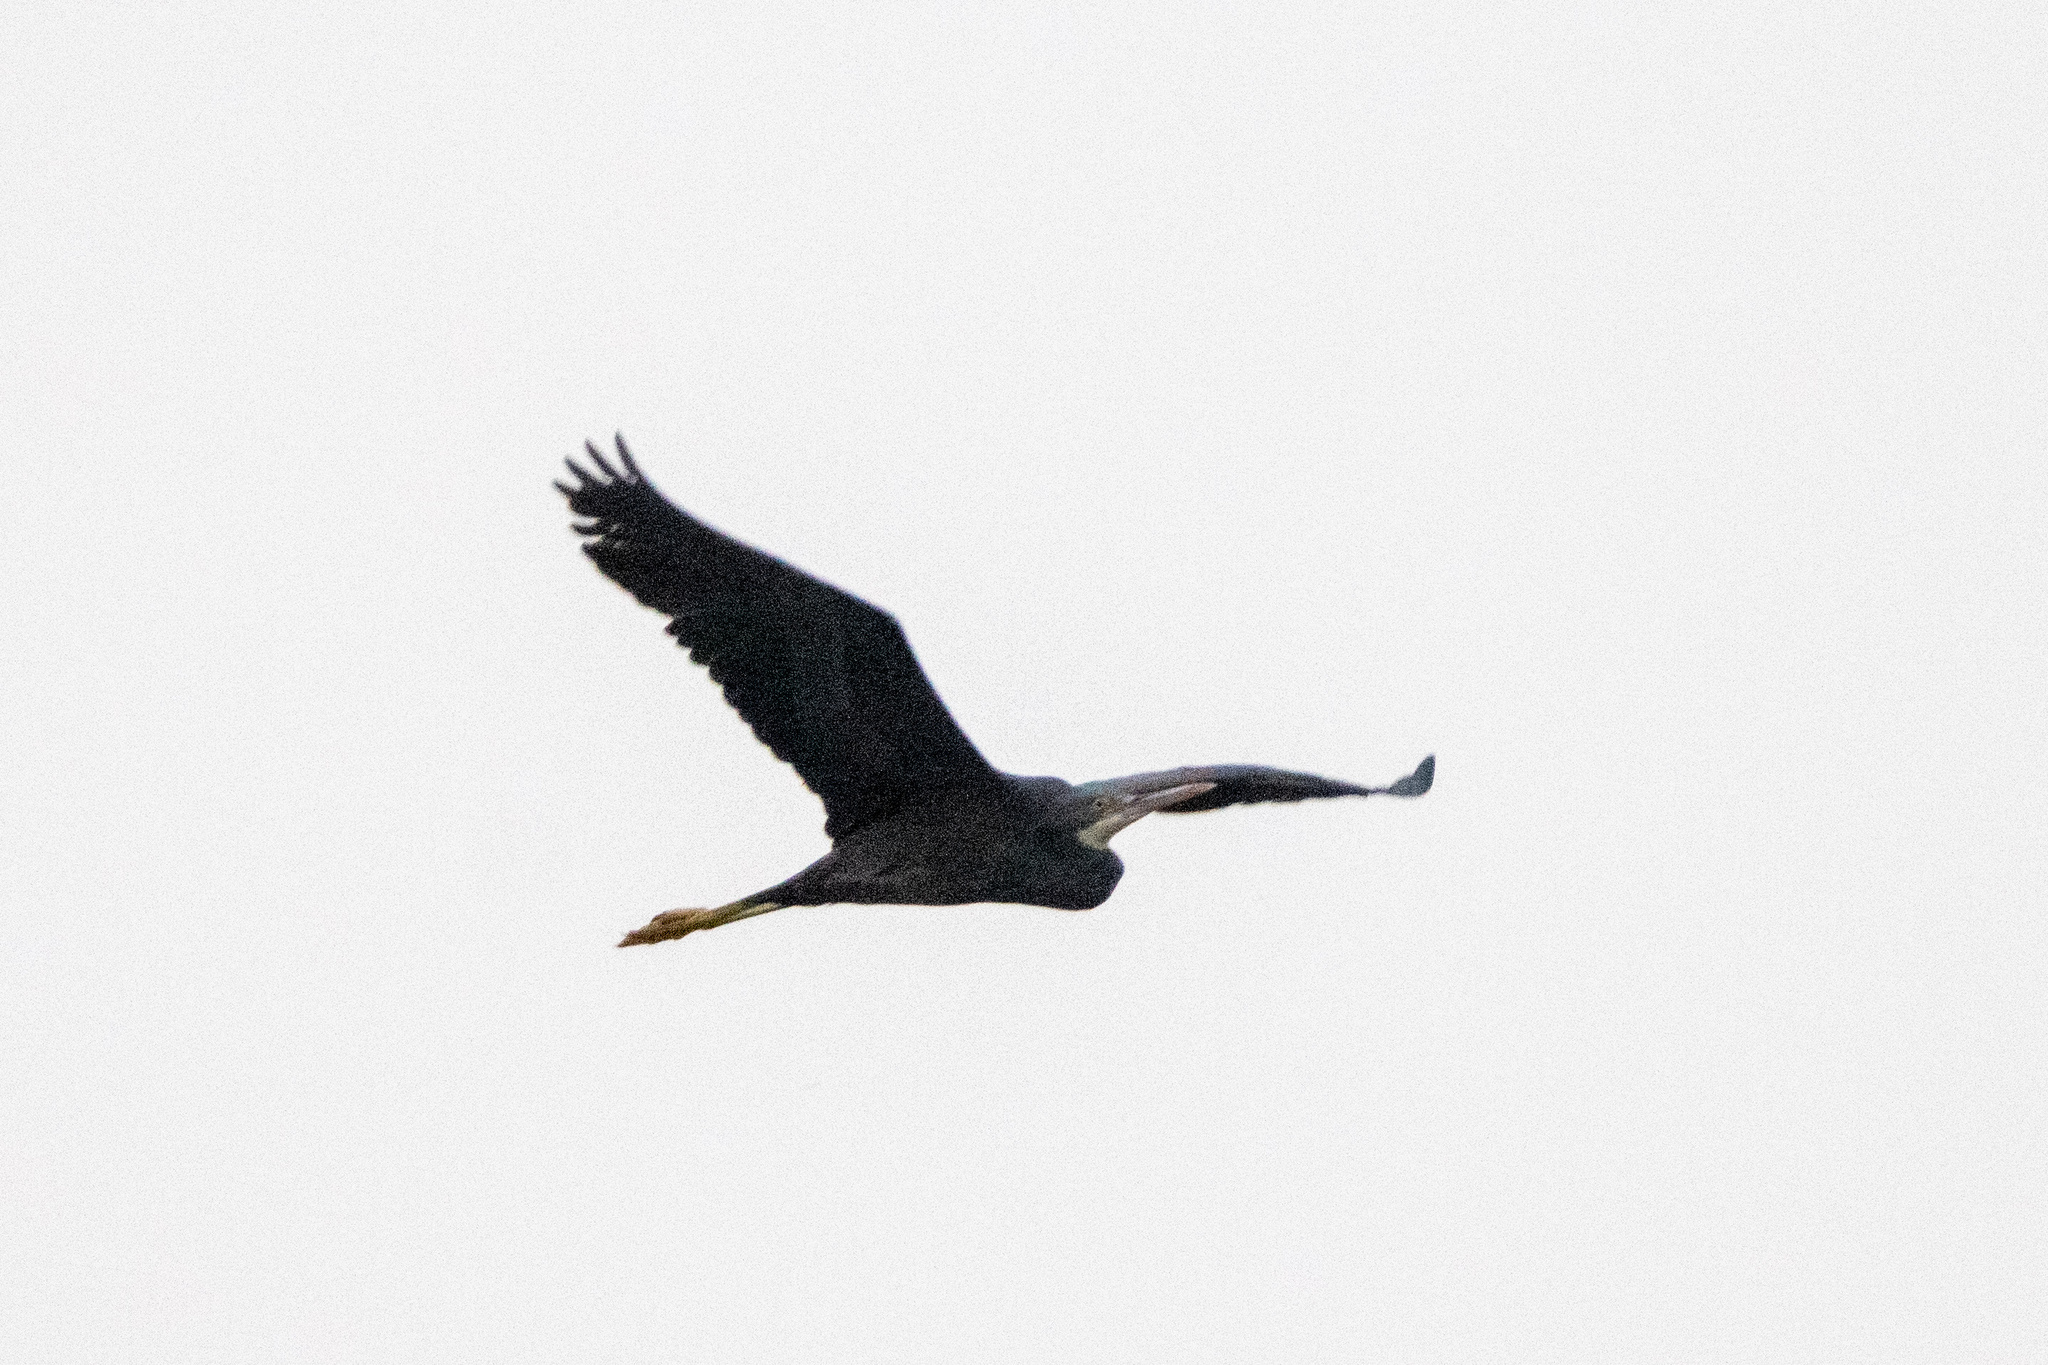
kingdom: Animalia
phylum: Chordata
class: Aves
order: Pelecaniformes
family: Ardeidae
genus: Egretta
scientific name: Egretta gularis
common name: Western reef-heron
